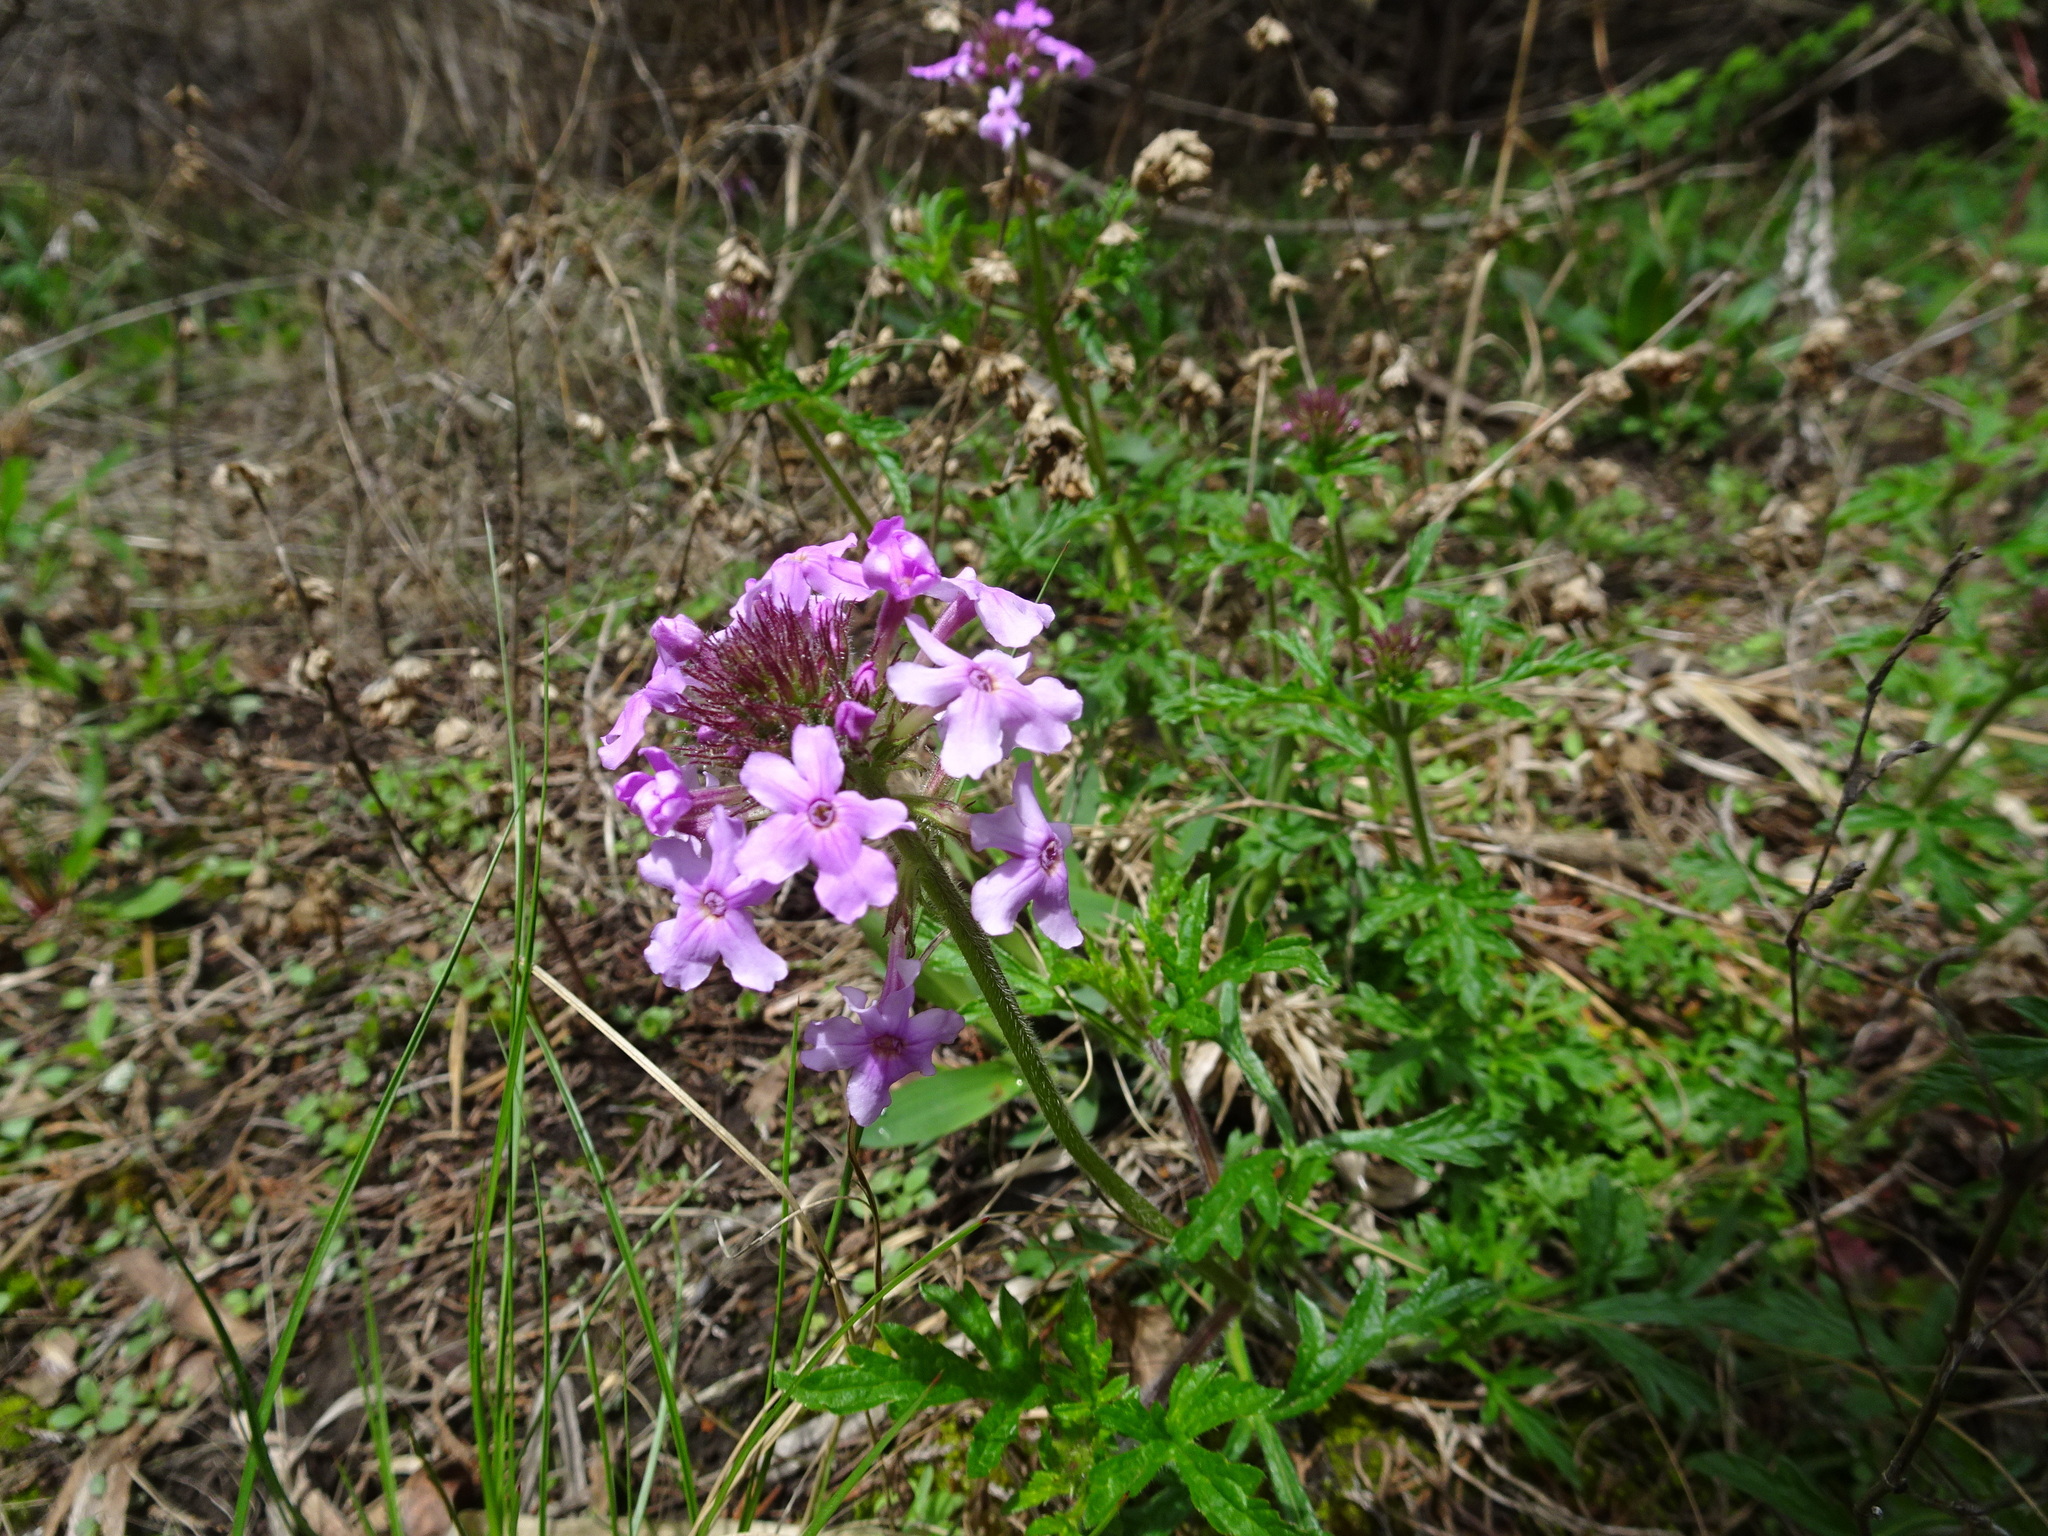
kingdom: Plantae
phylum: Tracheophyta
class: Magnoliopsida
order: Lamiales
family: Verbenaceae
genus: Verbena
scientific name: Verbena canadensis
